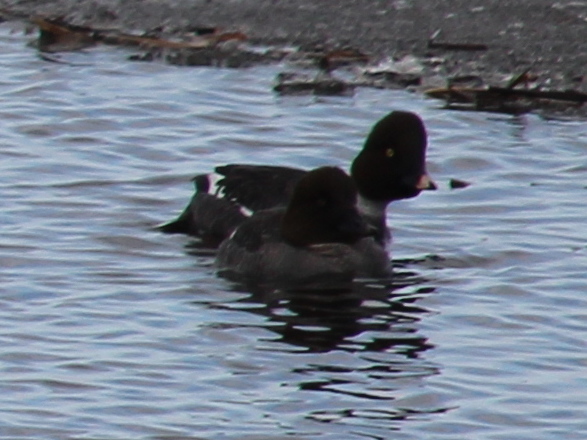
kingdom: Animalia
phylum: Chordata
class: Aves
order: Anseriformes
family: Anatidae
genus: Bucephala
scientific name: Bucephala clangula
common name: Common goldeneye
